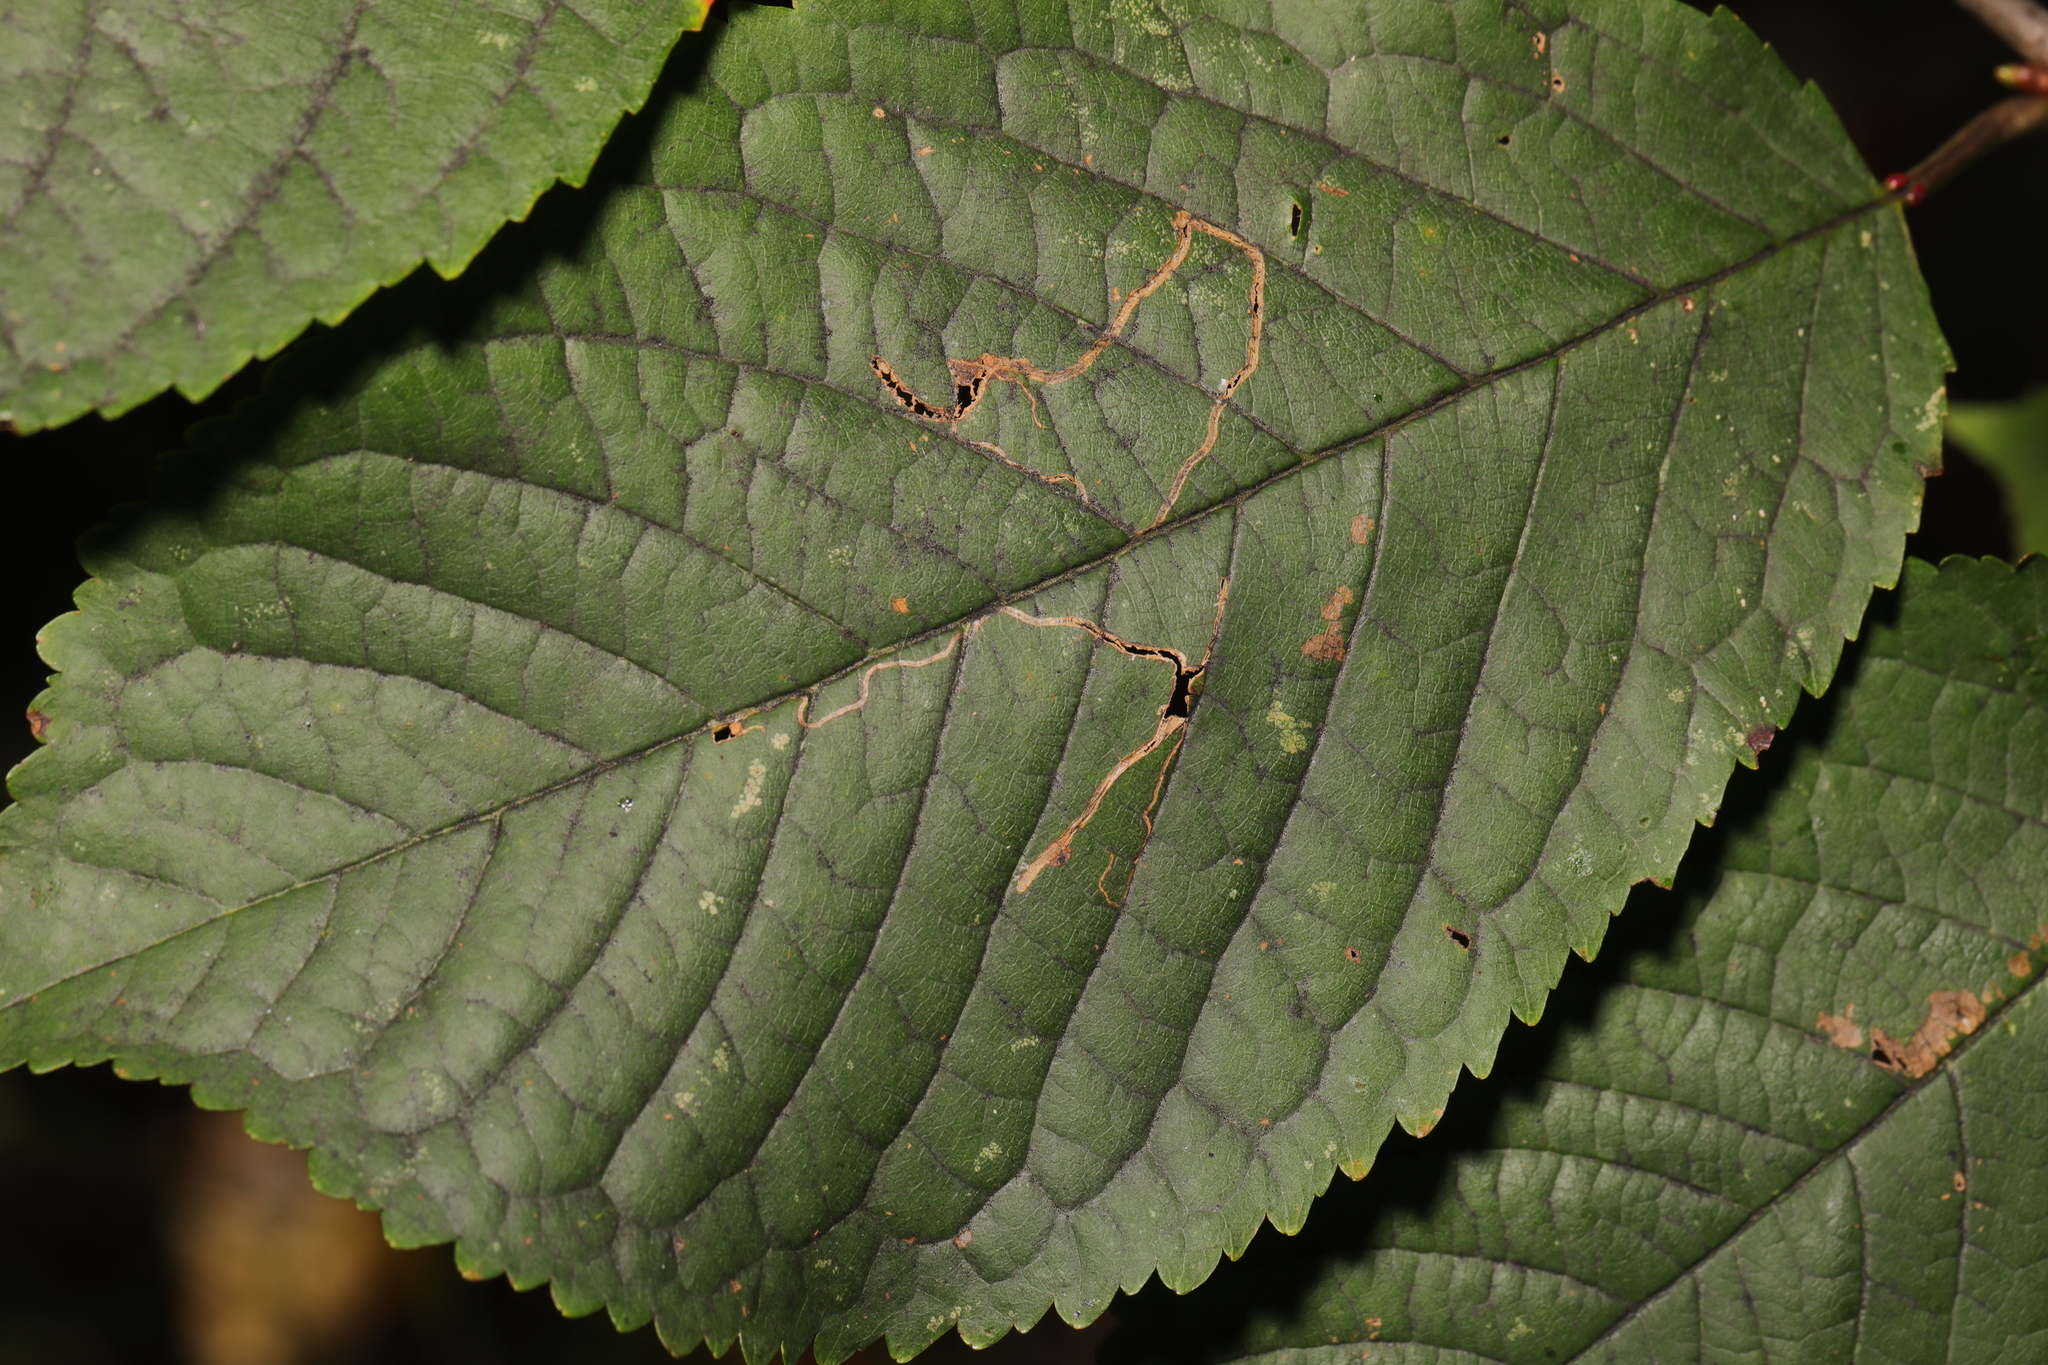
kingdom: Animalia
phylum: Arthropoda
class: Insecta
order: Lepidoptera
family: Lyonetiidae
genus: Lyonetia
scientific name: Lyonetia clerkella
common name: Apple leaf miner
